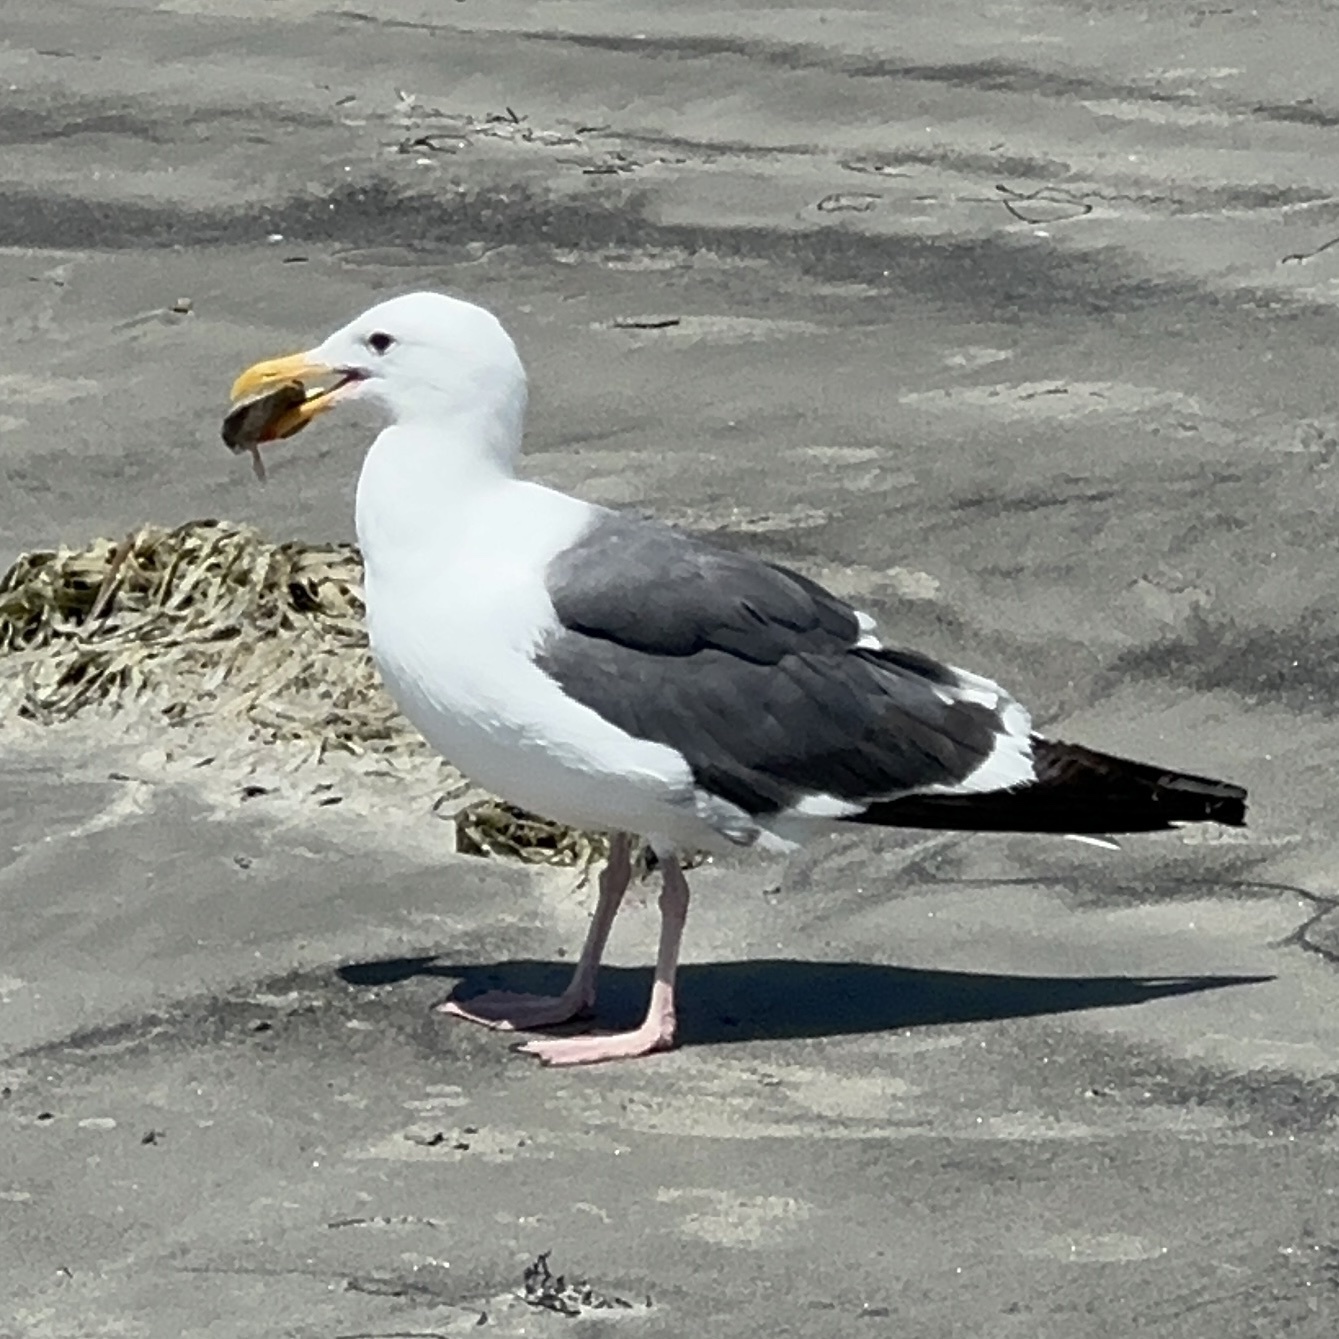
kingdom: Animalia
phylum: Chordata
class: Aves
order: Charadriiformes
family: Laridae
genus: Larus
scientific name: Larus occidentalis
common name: Western gull
